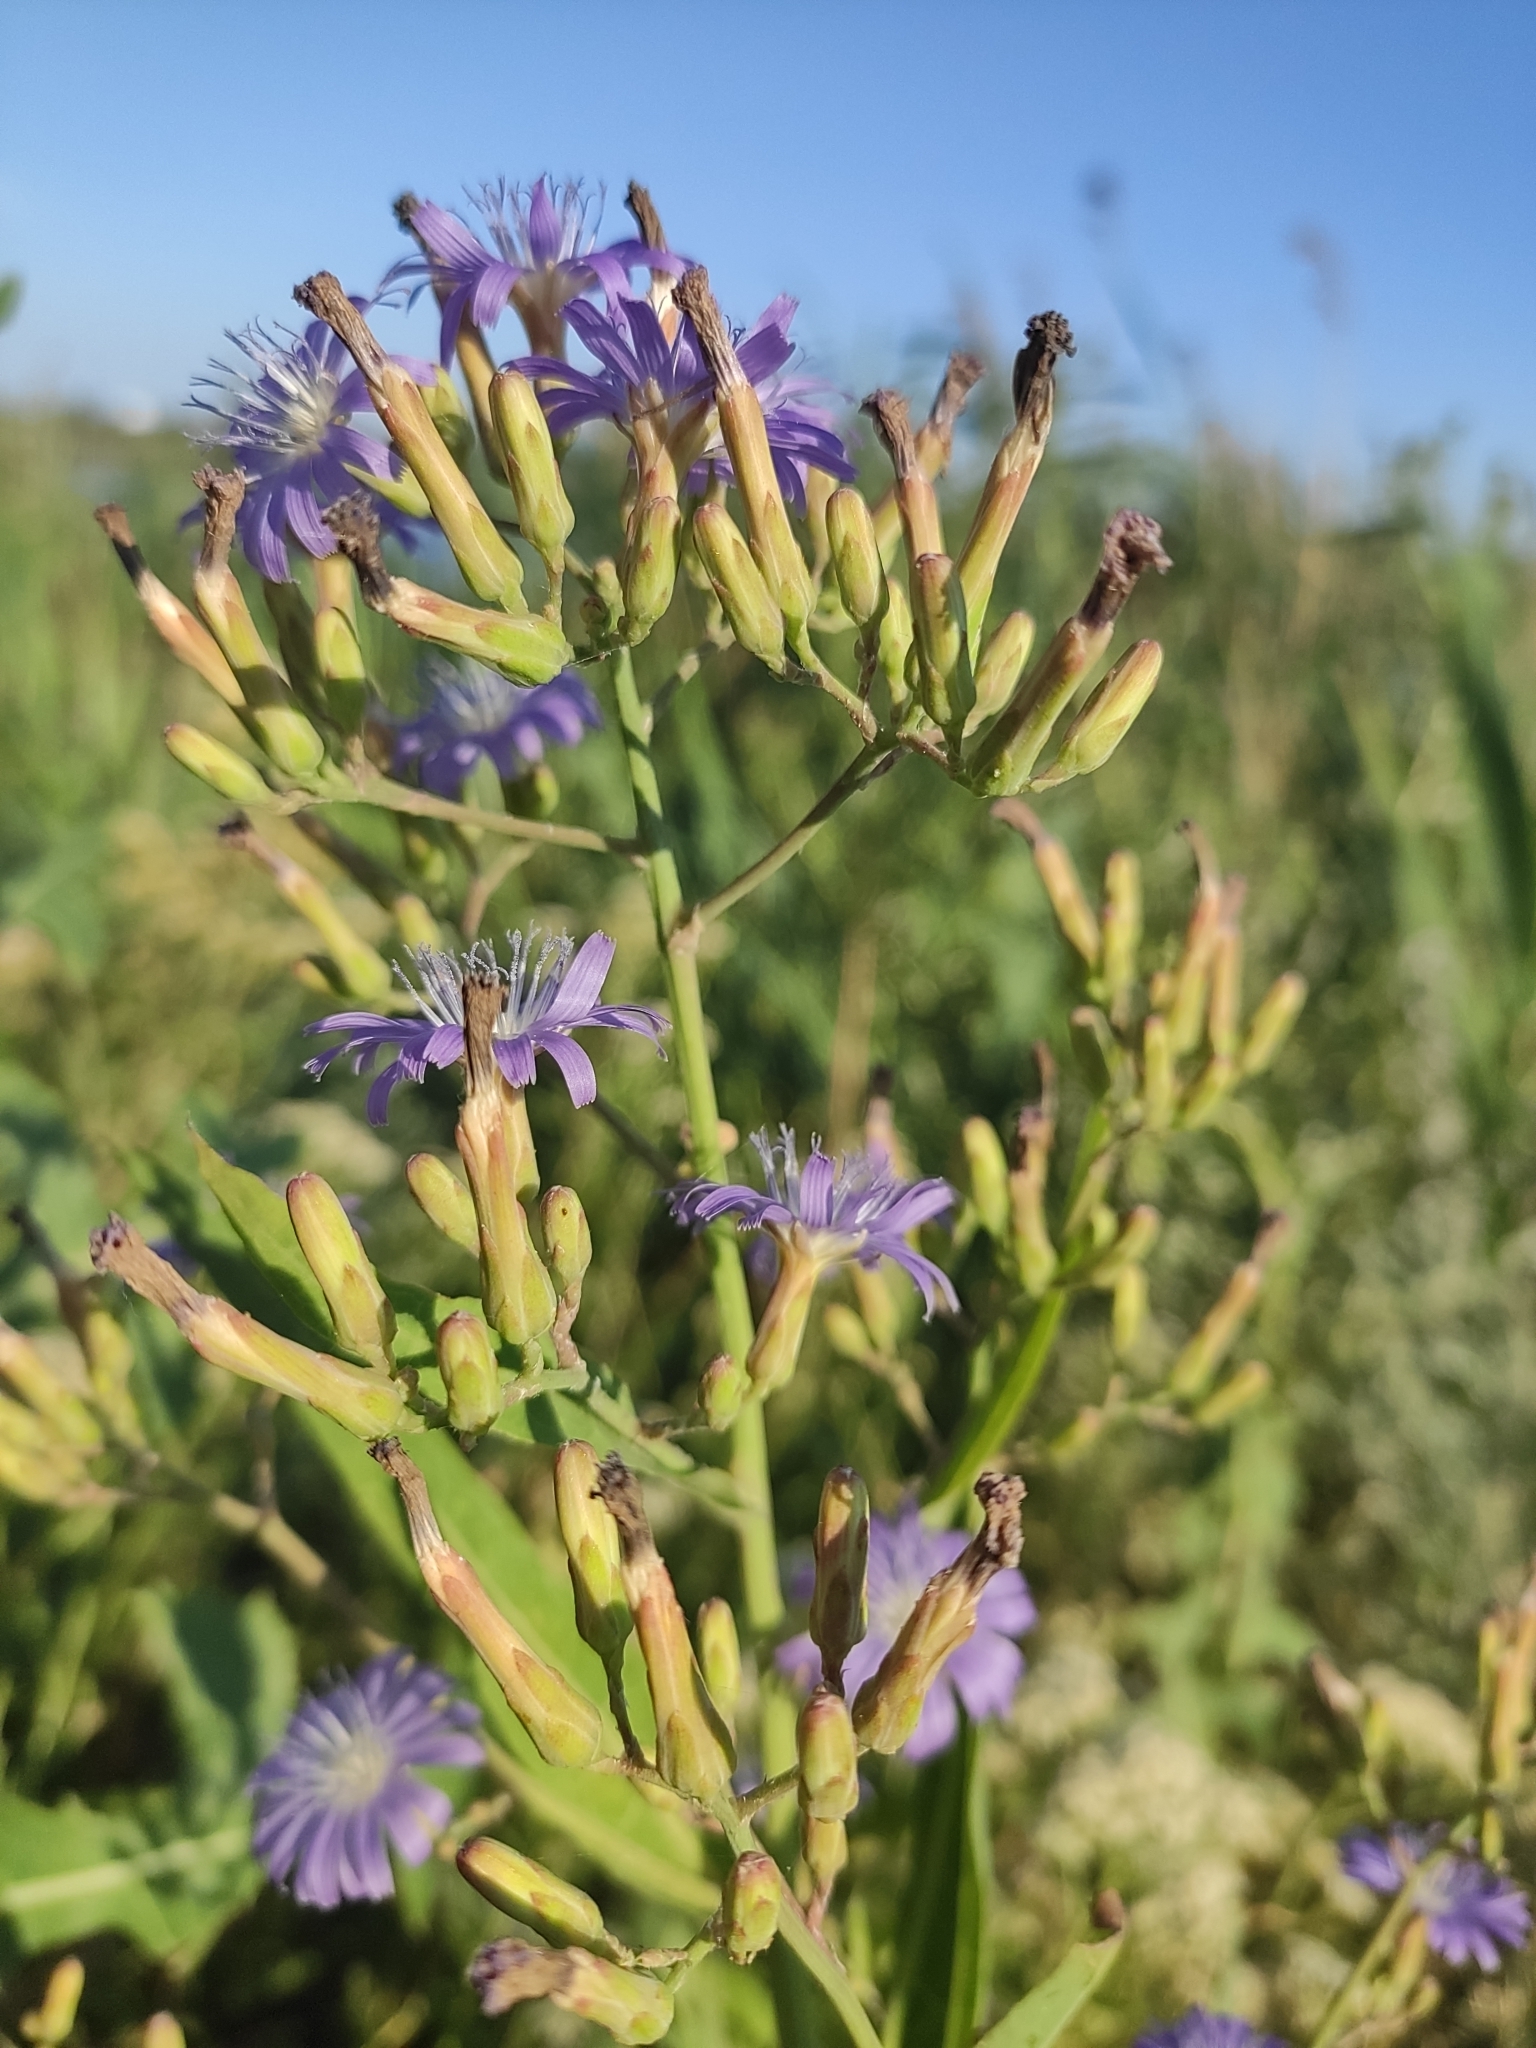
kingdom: Plantae
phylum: Tracheophyta
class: Magnoliopsida
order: Asterales
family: Asteraceae
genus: Lactuca
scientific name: Lactuca tatarica
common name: Blue lettuce
